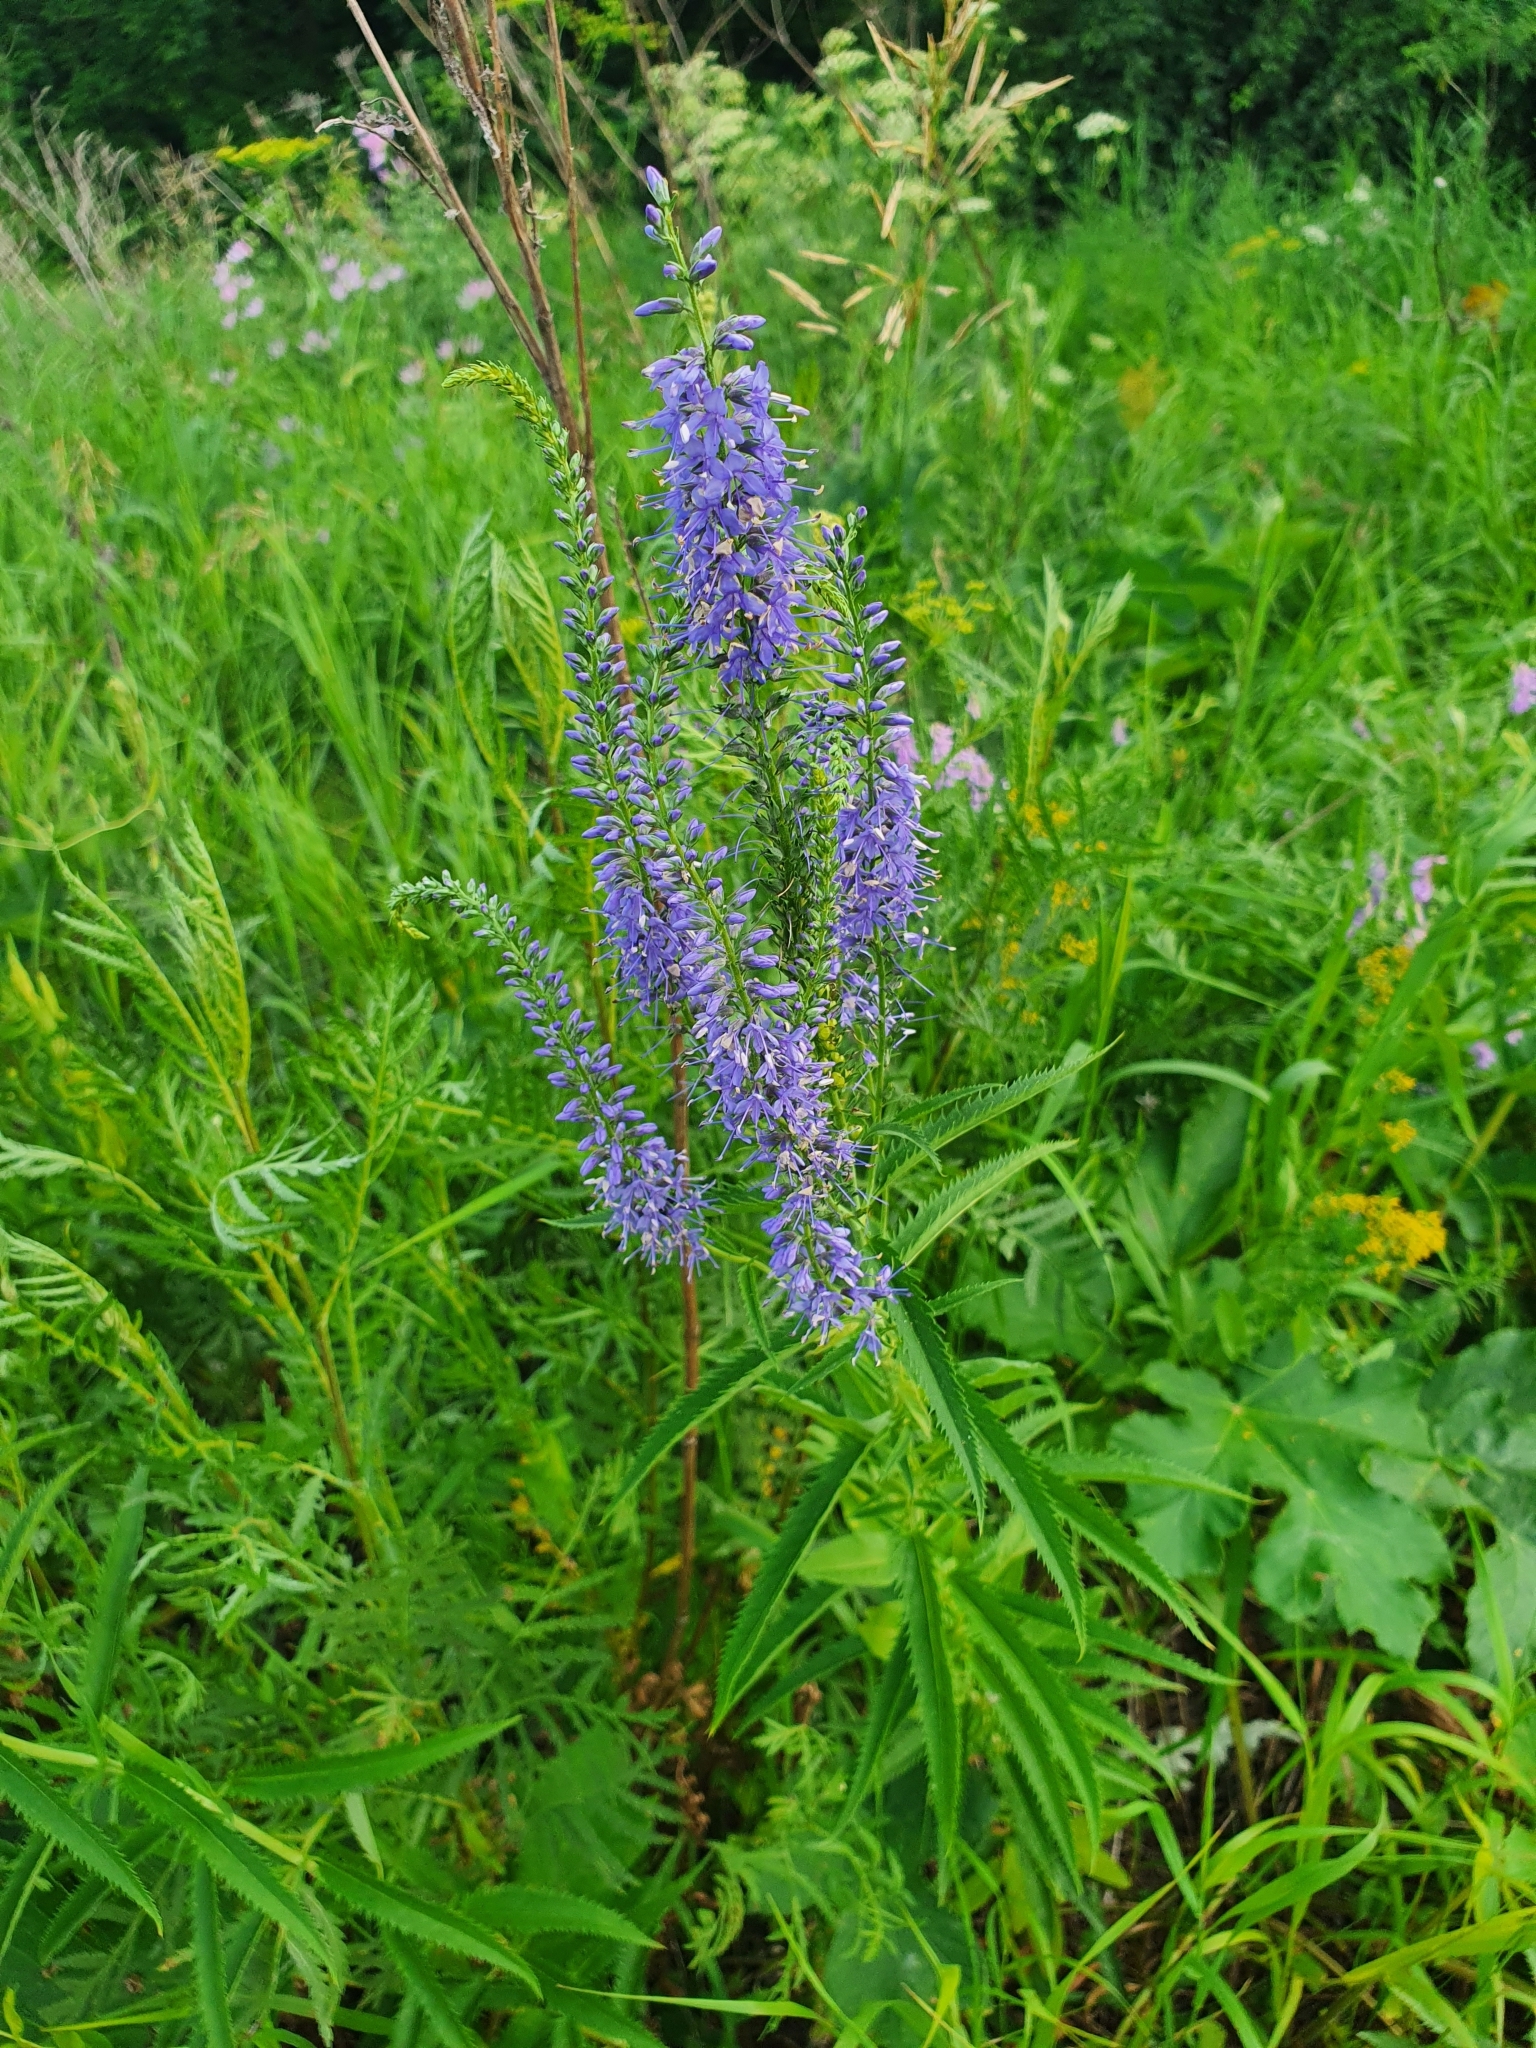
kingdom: Plantae
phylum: Tracheophyta
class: Magnoliopsida
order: Lamiales
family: Plantaginaceae
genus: Veronica
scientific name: Veronica longifolia
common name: Garden speedwell
